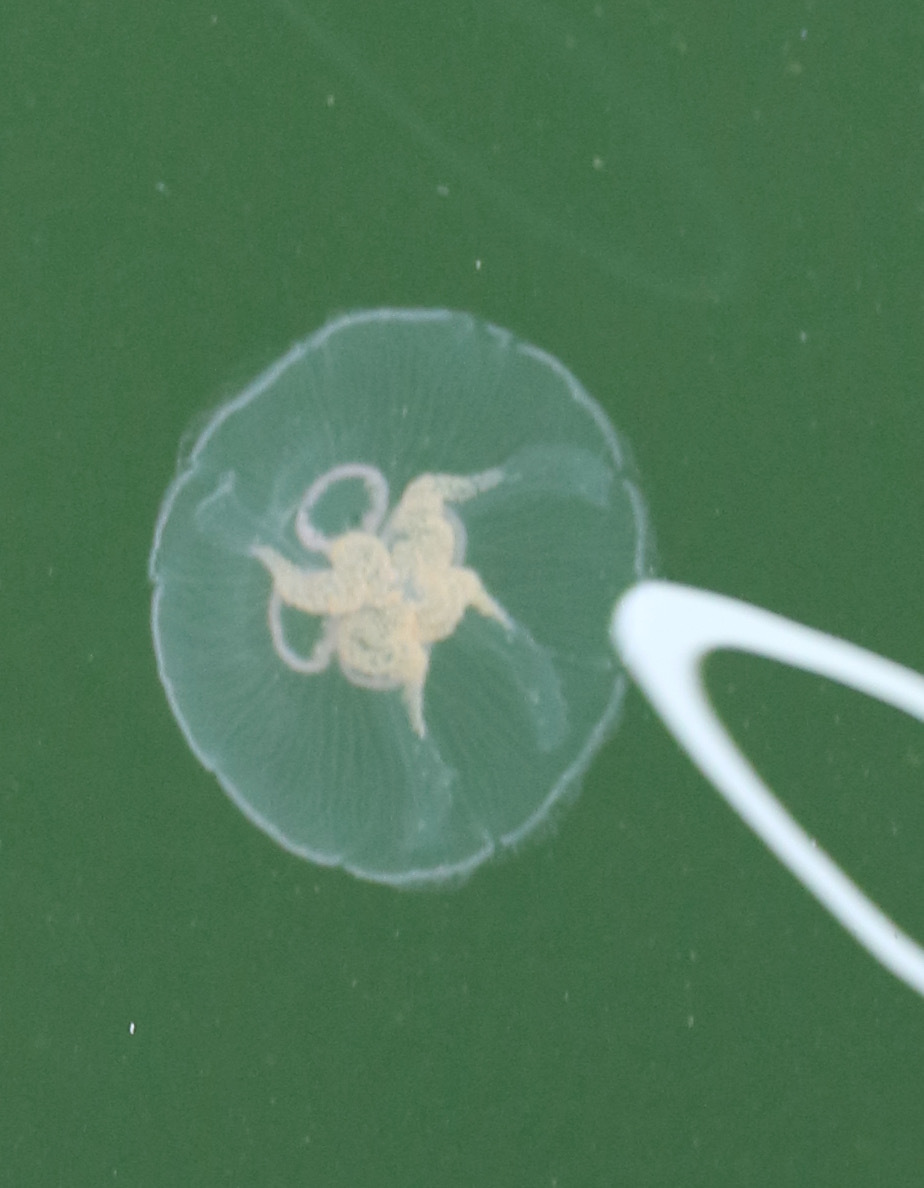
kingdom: Animalia
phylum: Cnidaria
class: Scyphozoa
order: Semaeostomeae
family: Ulmaridae
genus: Aurelia
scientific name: Aurelia aurita
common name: Moon jellyfish
